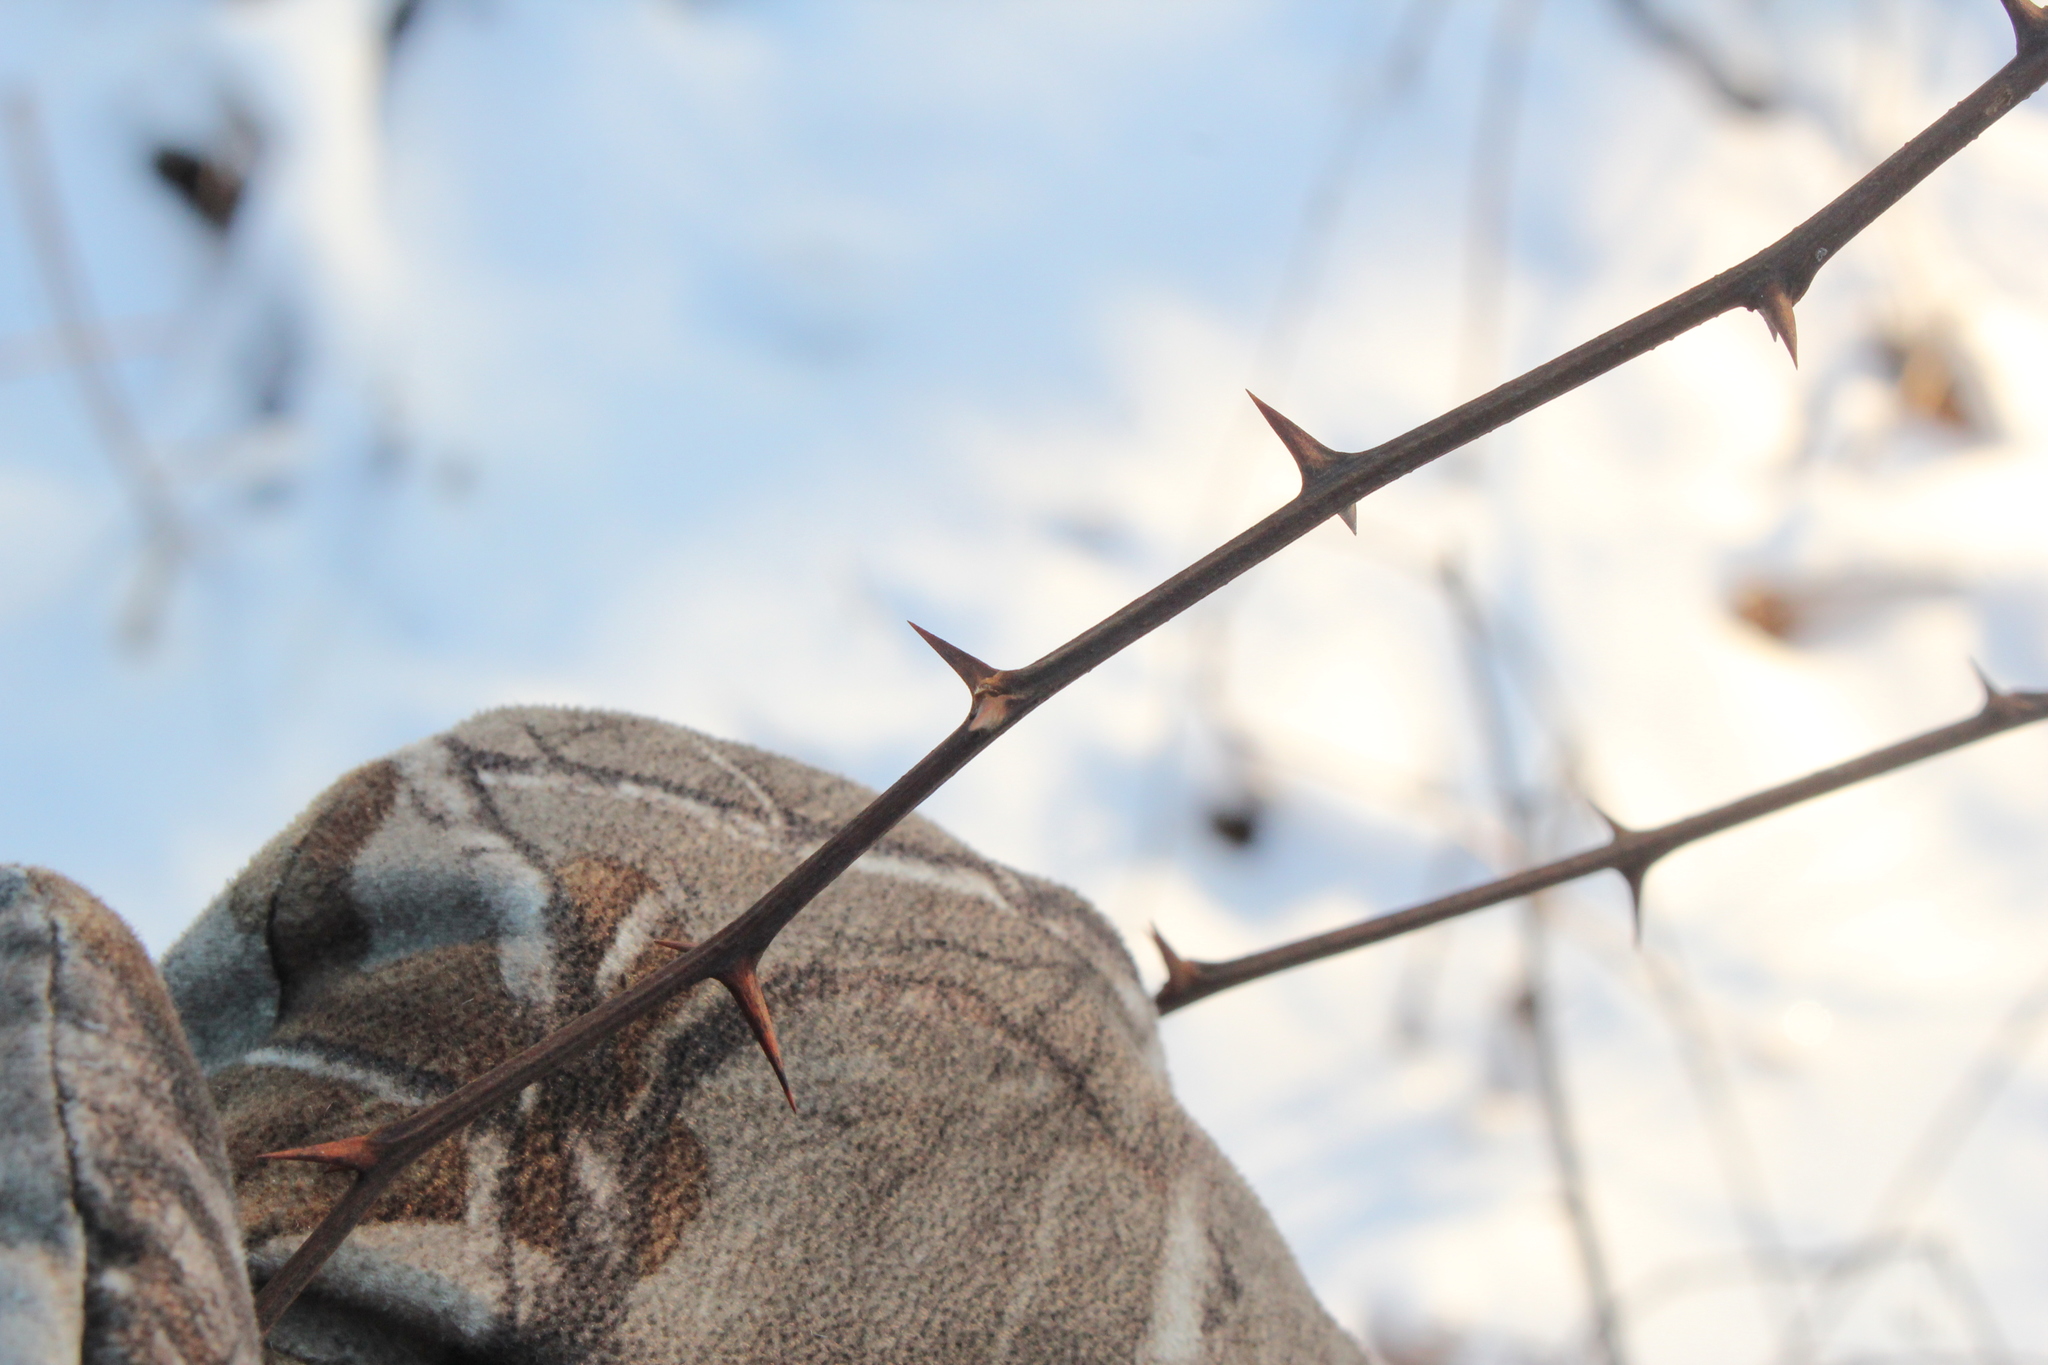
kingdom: Plantae
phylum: Tracheophyta
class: Magnoliopsida
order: Fabales
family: Fabaceae
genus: Robinia
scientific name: Robinia pseudoacacia
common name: Black locust
